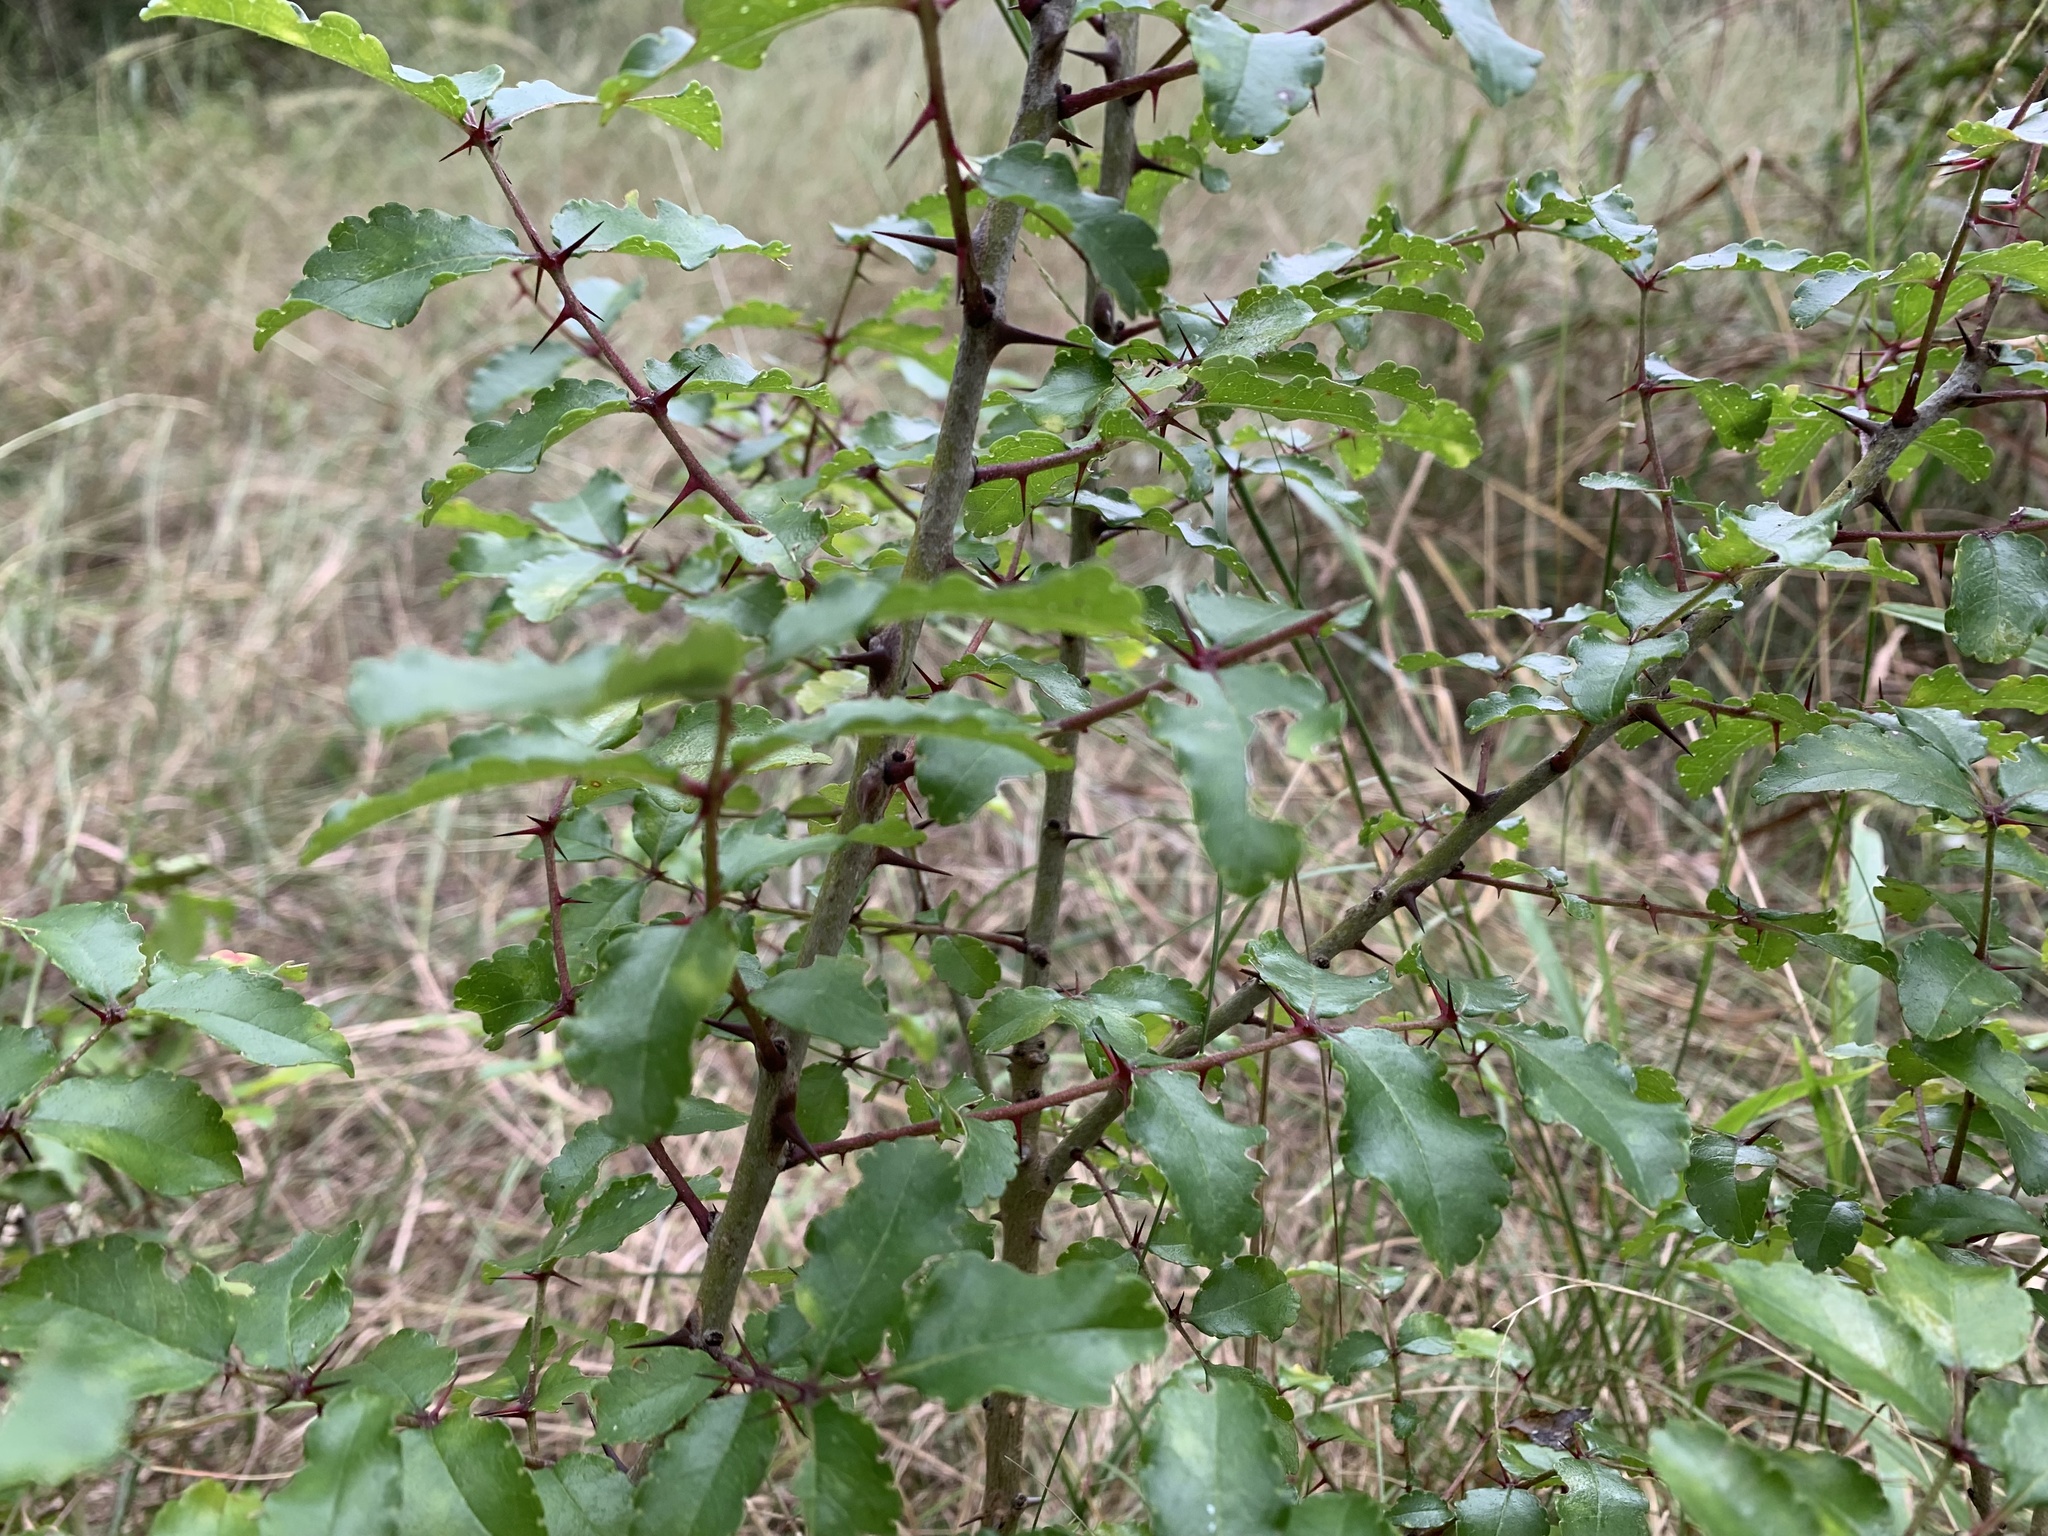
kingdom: Plantae
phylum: Tracheophyta
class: Magnoliopsida
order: Sapindales
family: Rutaceae
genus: Zanthoxylum
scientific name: Zanthoxylum clava-herculis
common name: Hercules'-club
